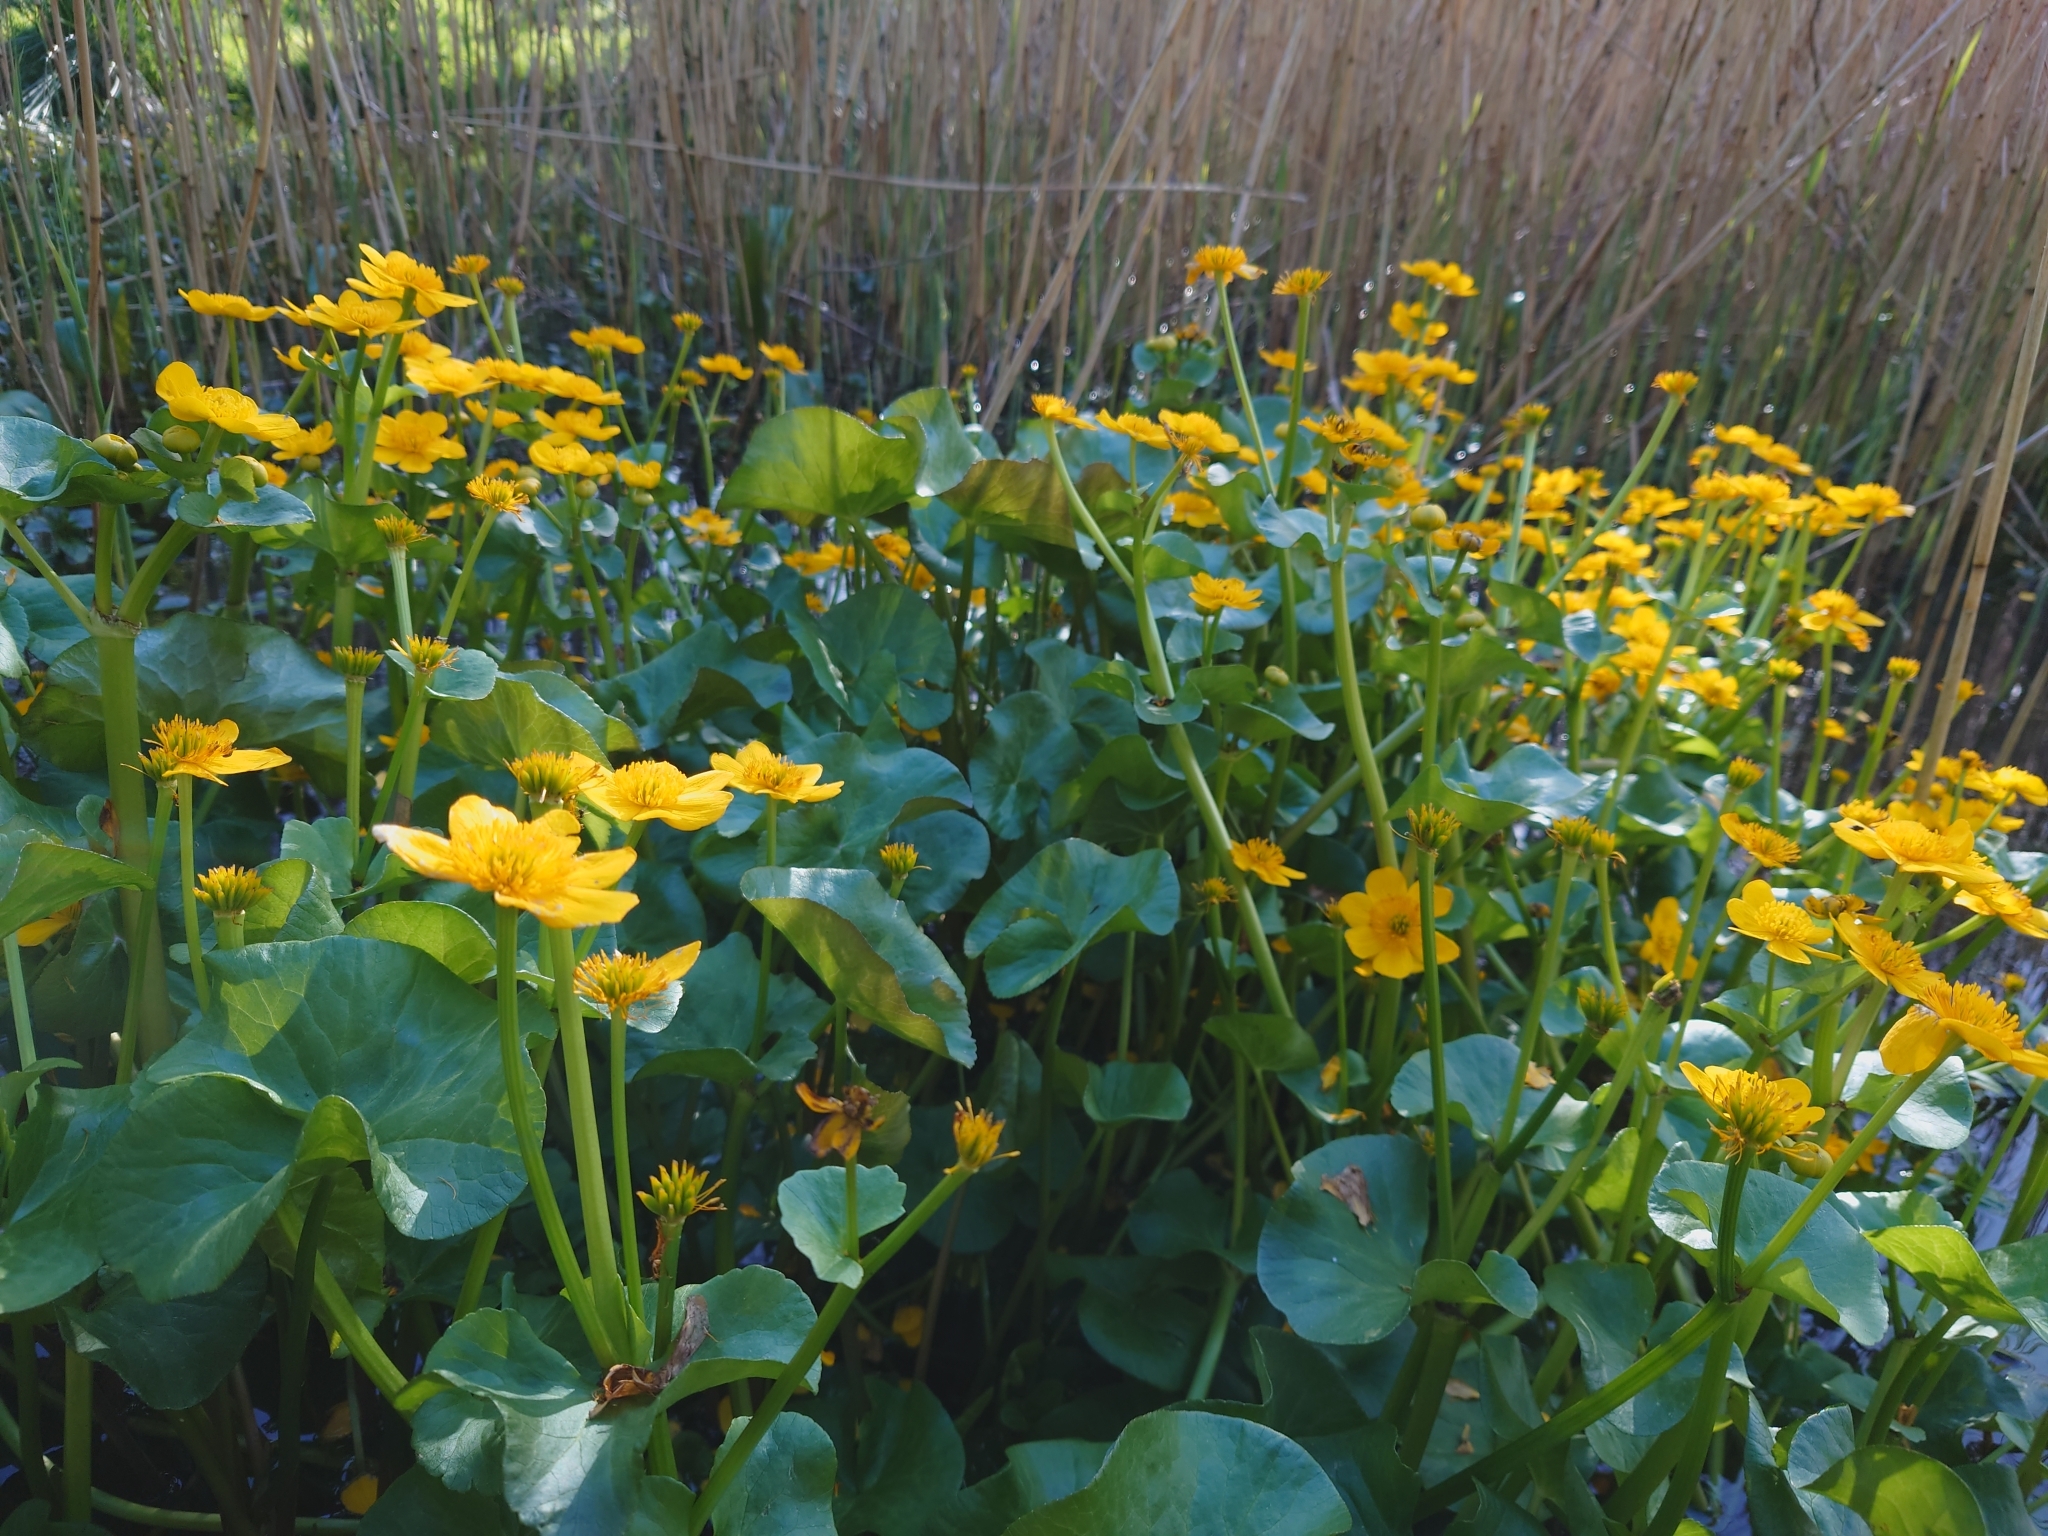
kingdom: Plantae
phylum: Tracheophyta
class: Magnoliopsida
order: Ranunculales
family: Ranunculaceae
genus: Caltha
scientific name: Caltha palustris
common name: Marsh marigold
